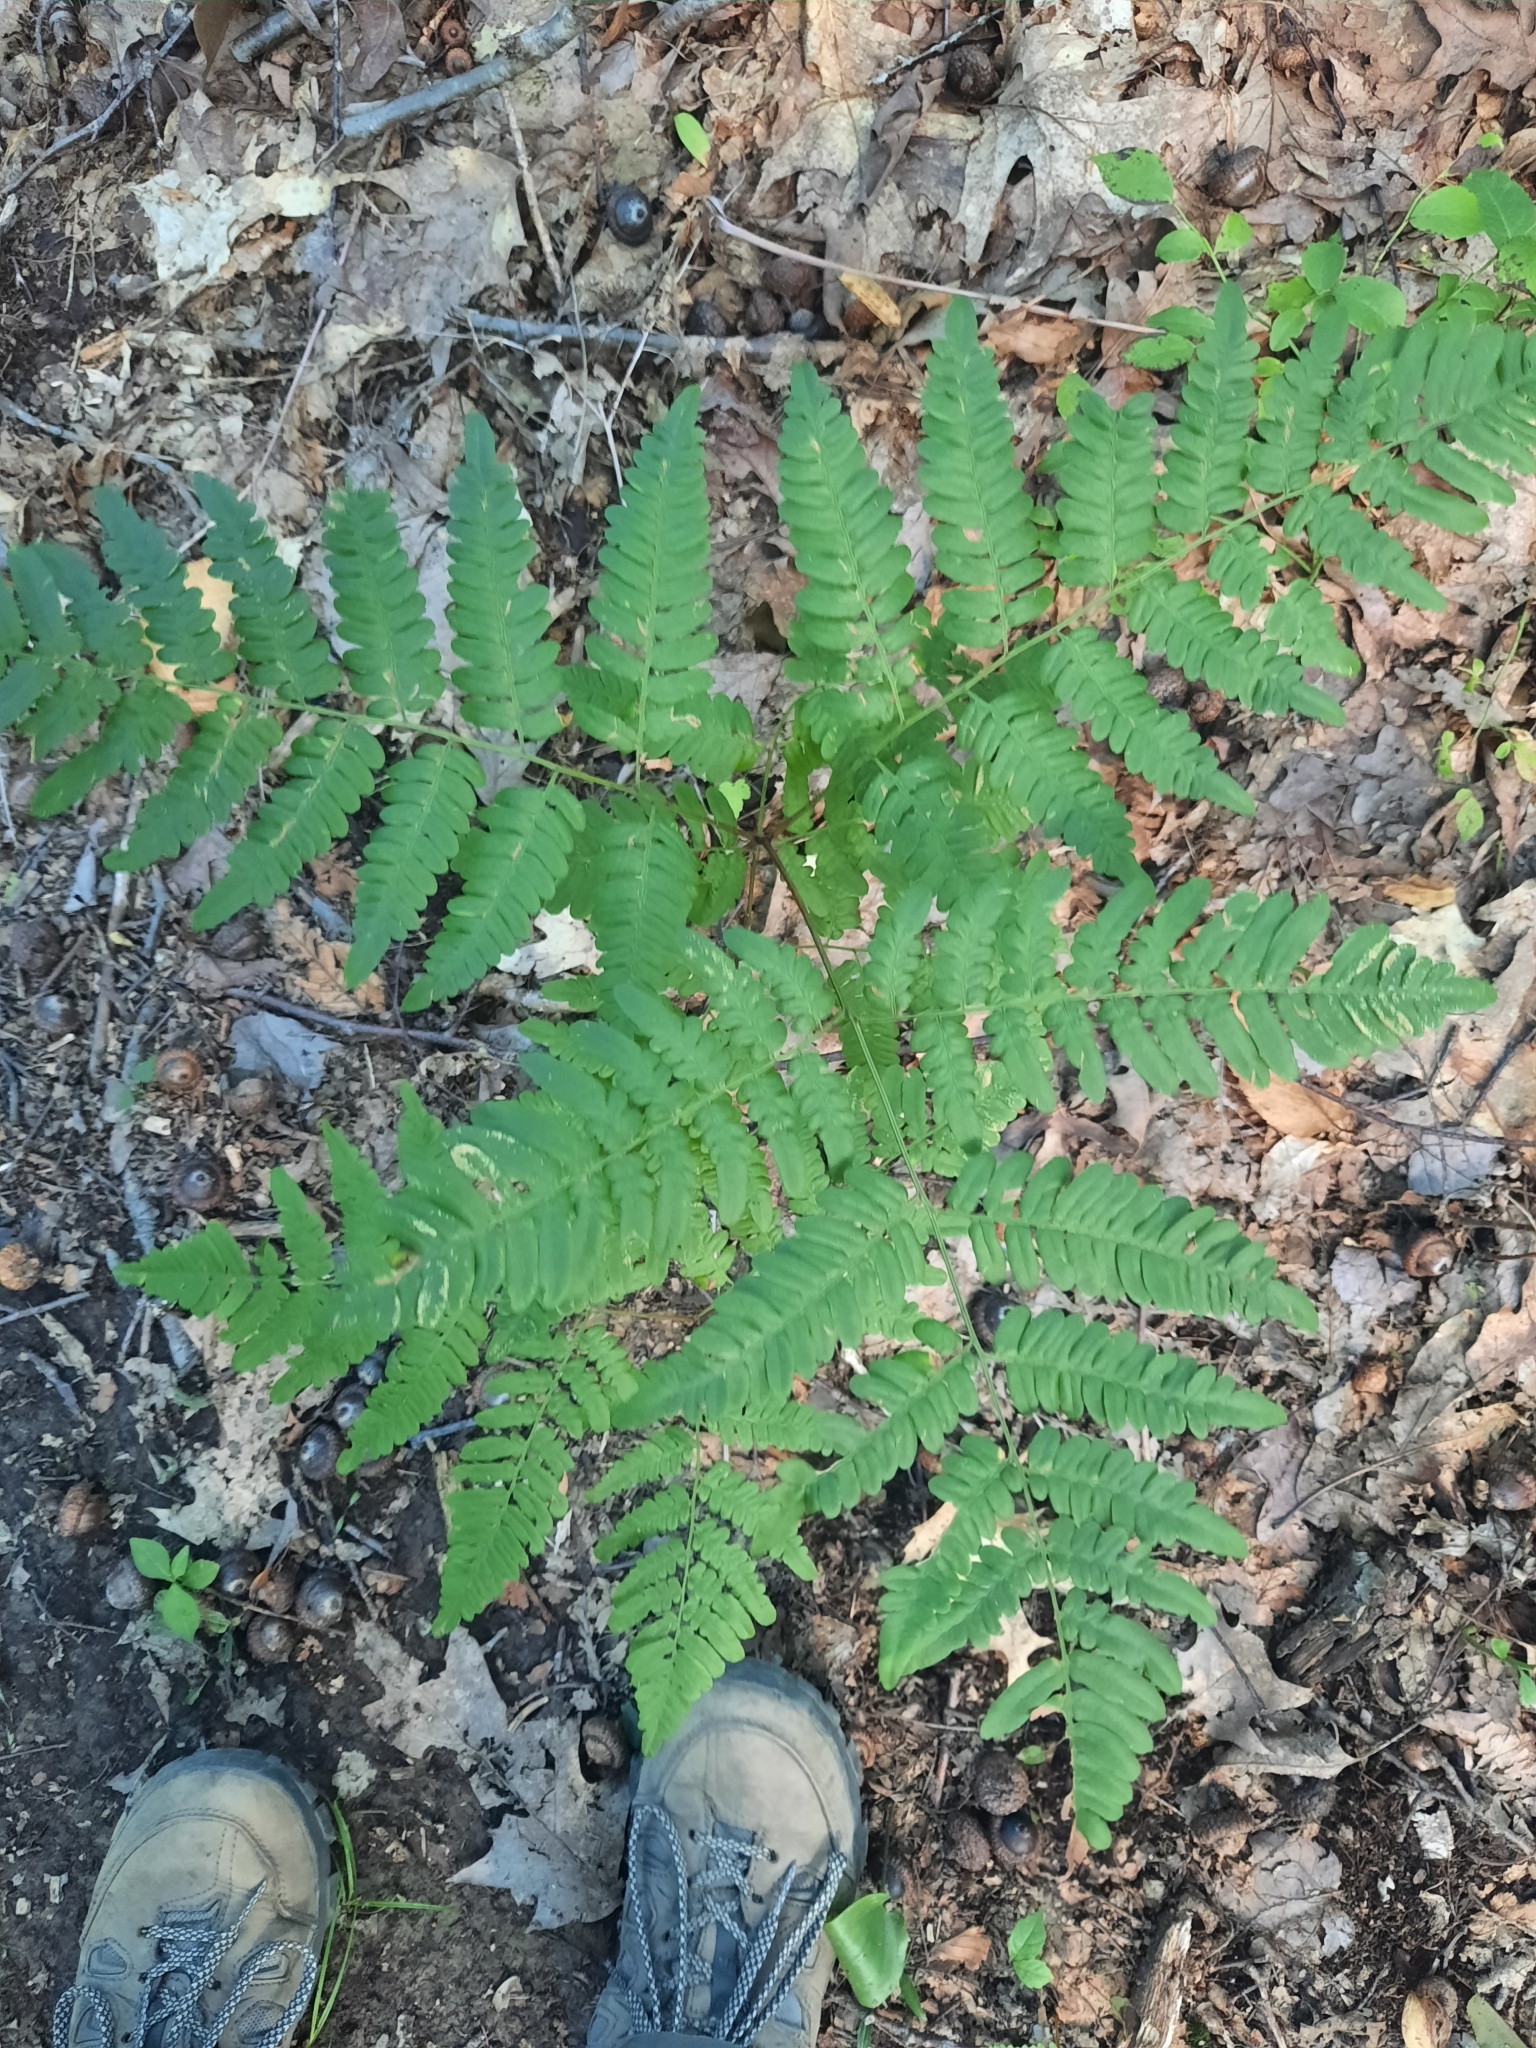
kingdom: Plantae
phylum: Tracheophyta
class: Polypodiopsida
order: Polypodiales
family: Dennstaedtiaceae
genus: Pteridium
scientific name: Pteridium aquilinum
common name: Bracken
